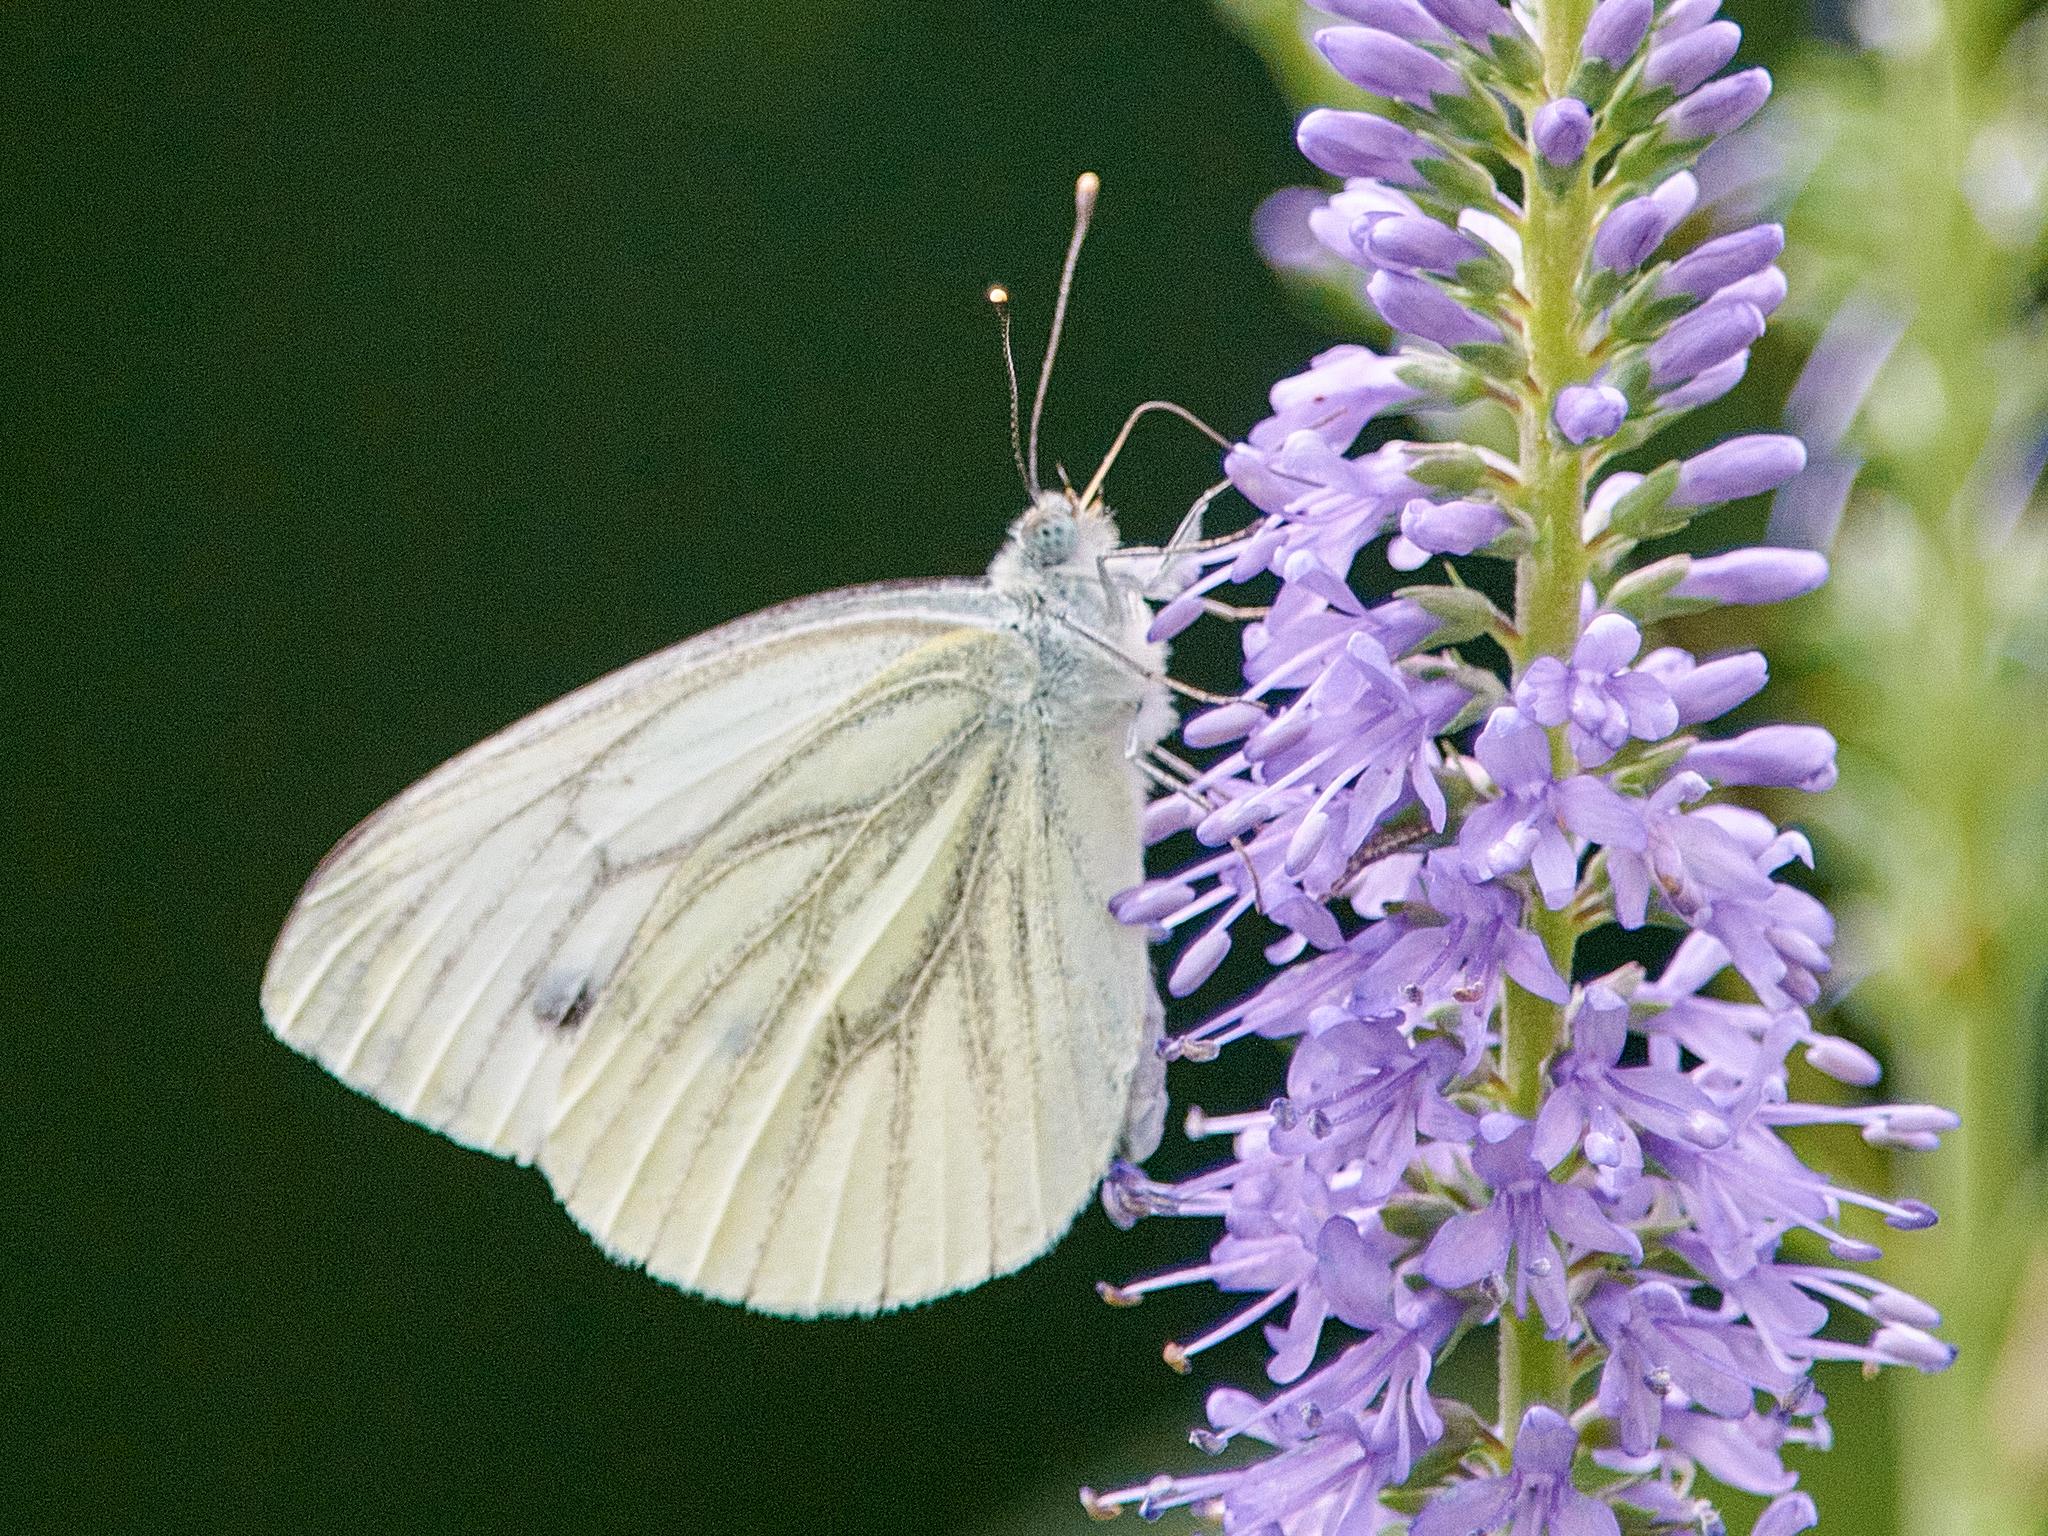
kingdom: Animalia
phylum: Arthropoda
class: Insecta
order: Lepidoptera
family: Pieridae
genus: Pieris
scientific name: Pieris napi
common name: Green-veined white
